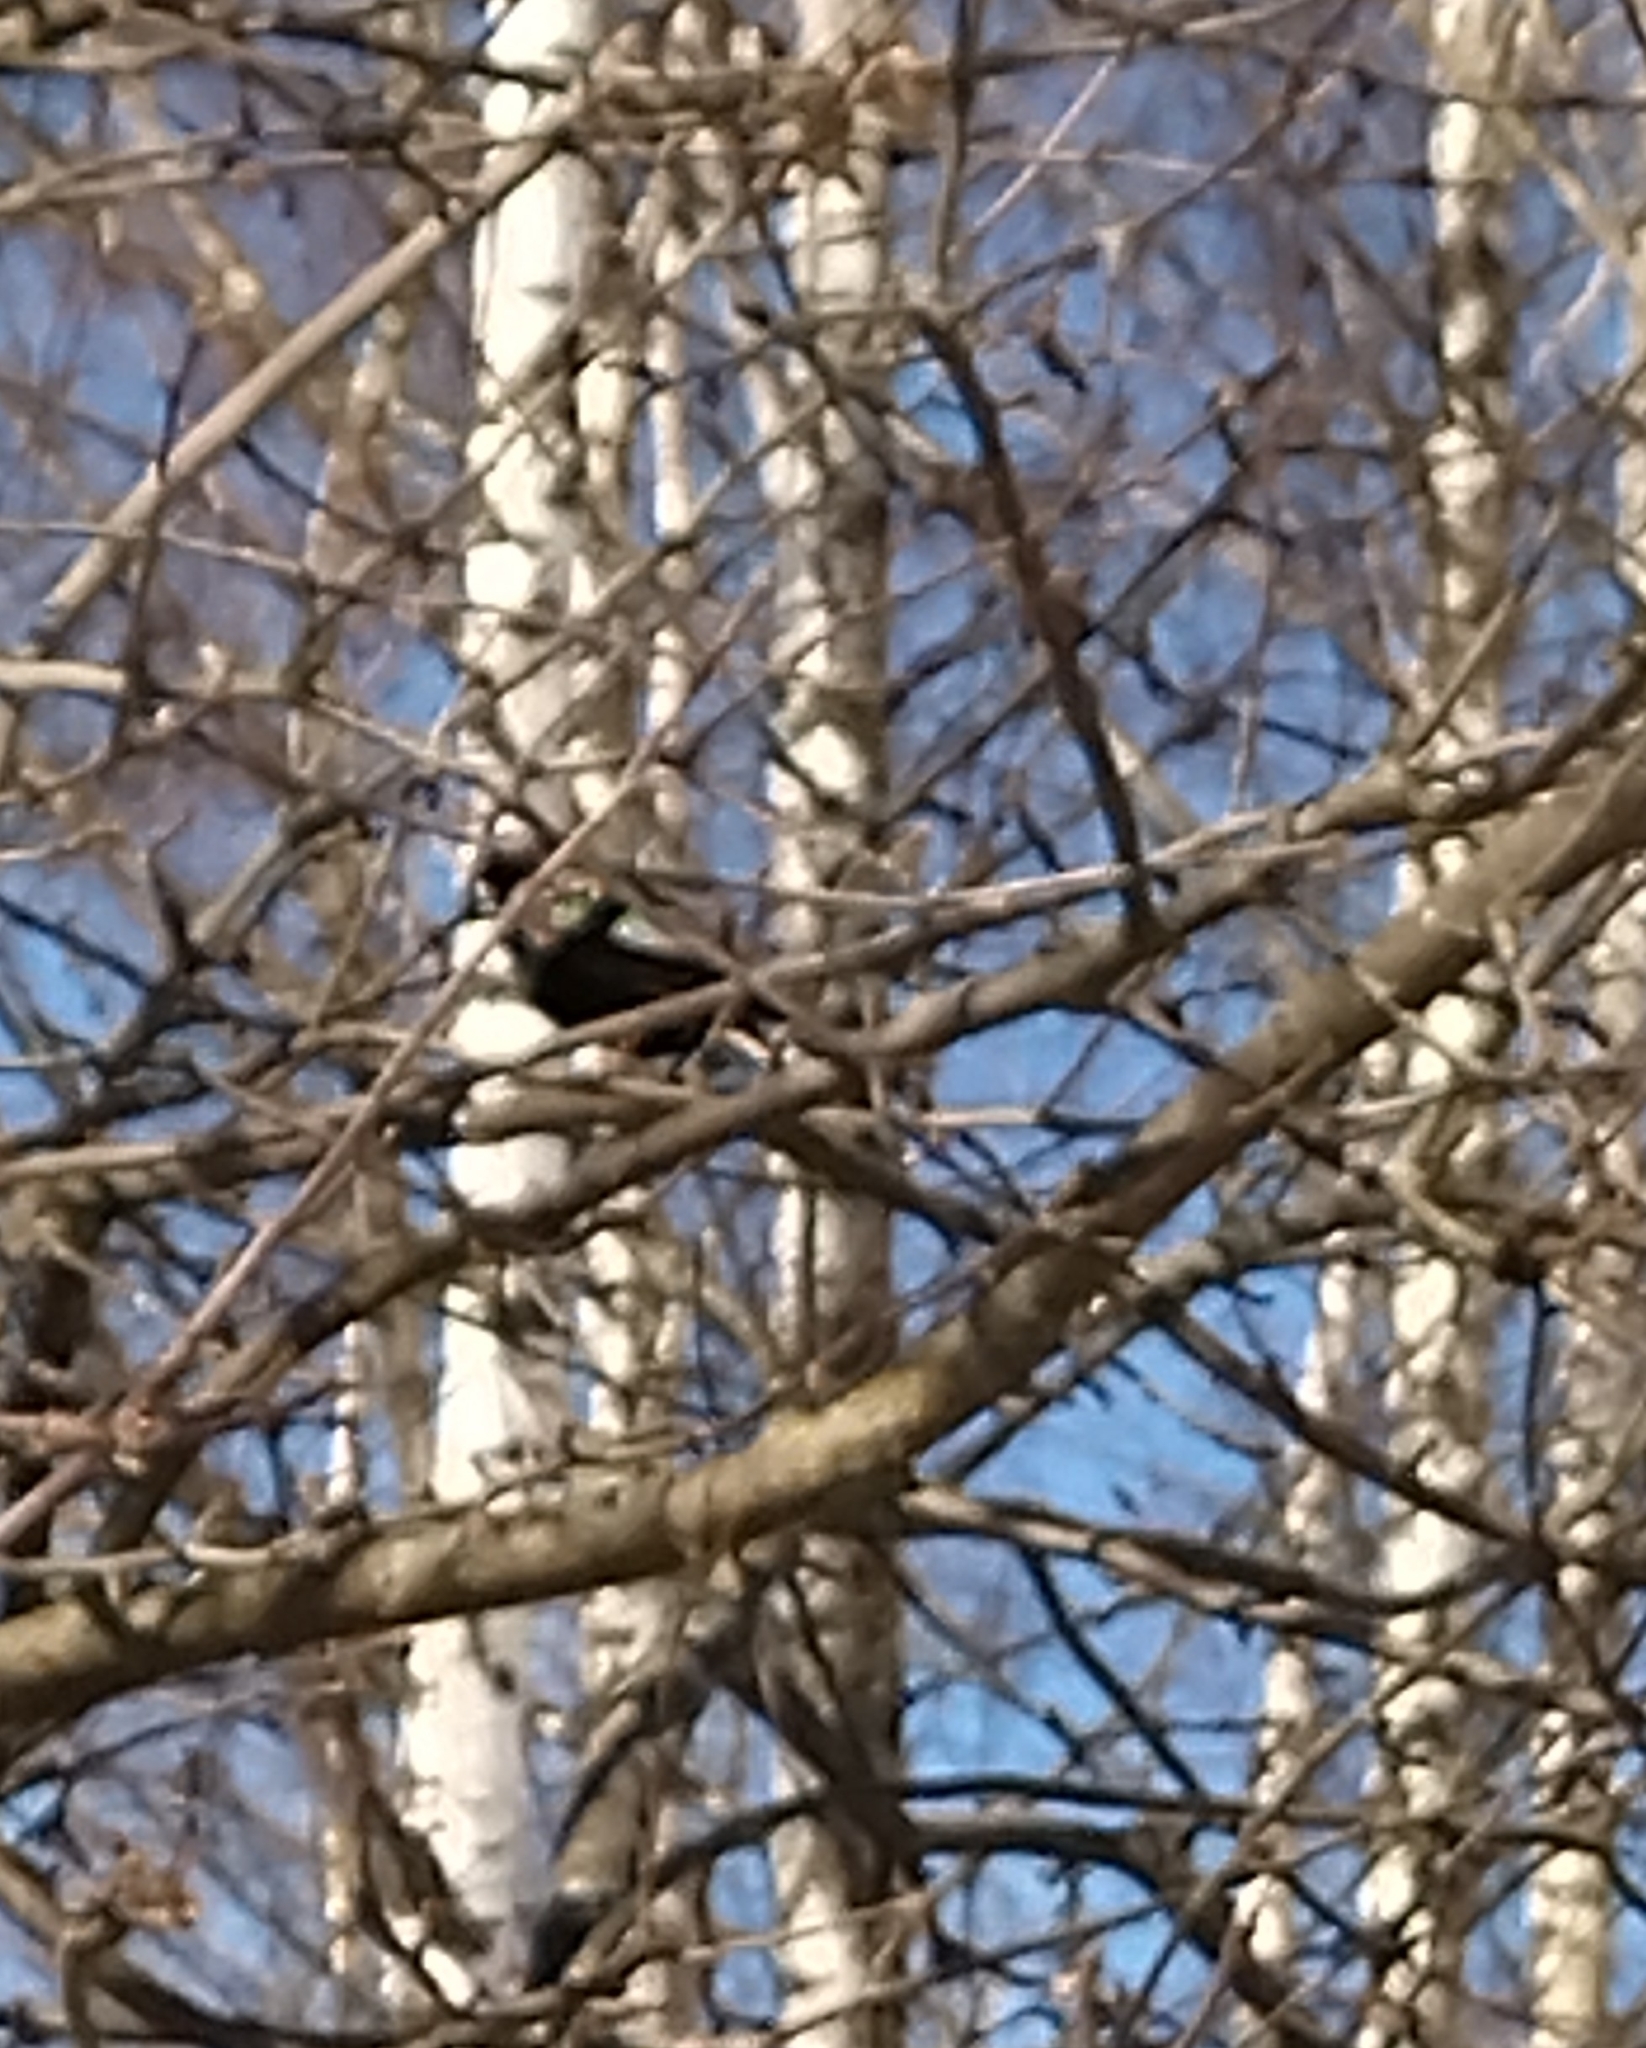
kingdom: Animalia
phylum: Chordata
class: Aves
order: Passeriformes
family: Sturnidae
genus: Sturnus
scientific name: Sturnus vulgaris
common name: Common starling
